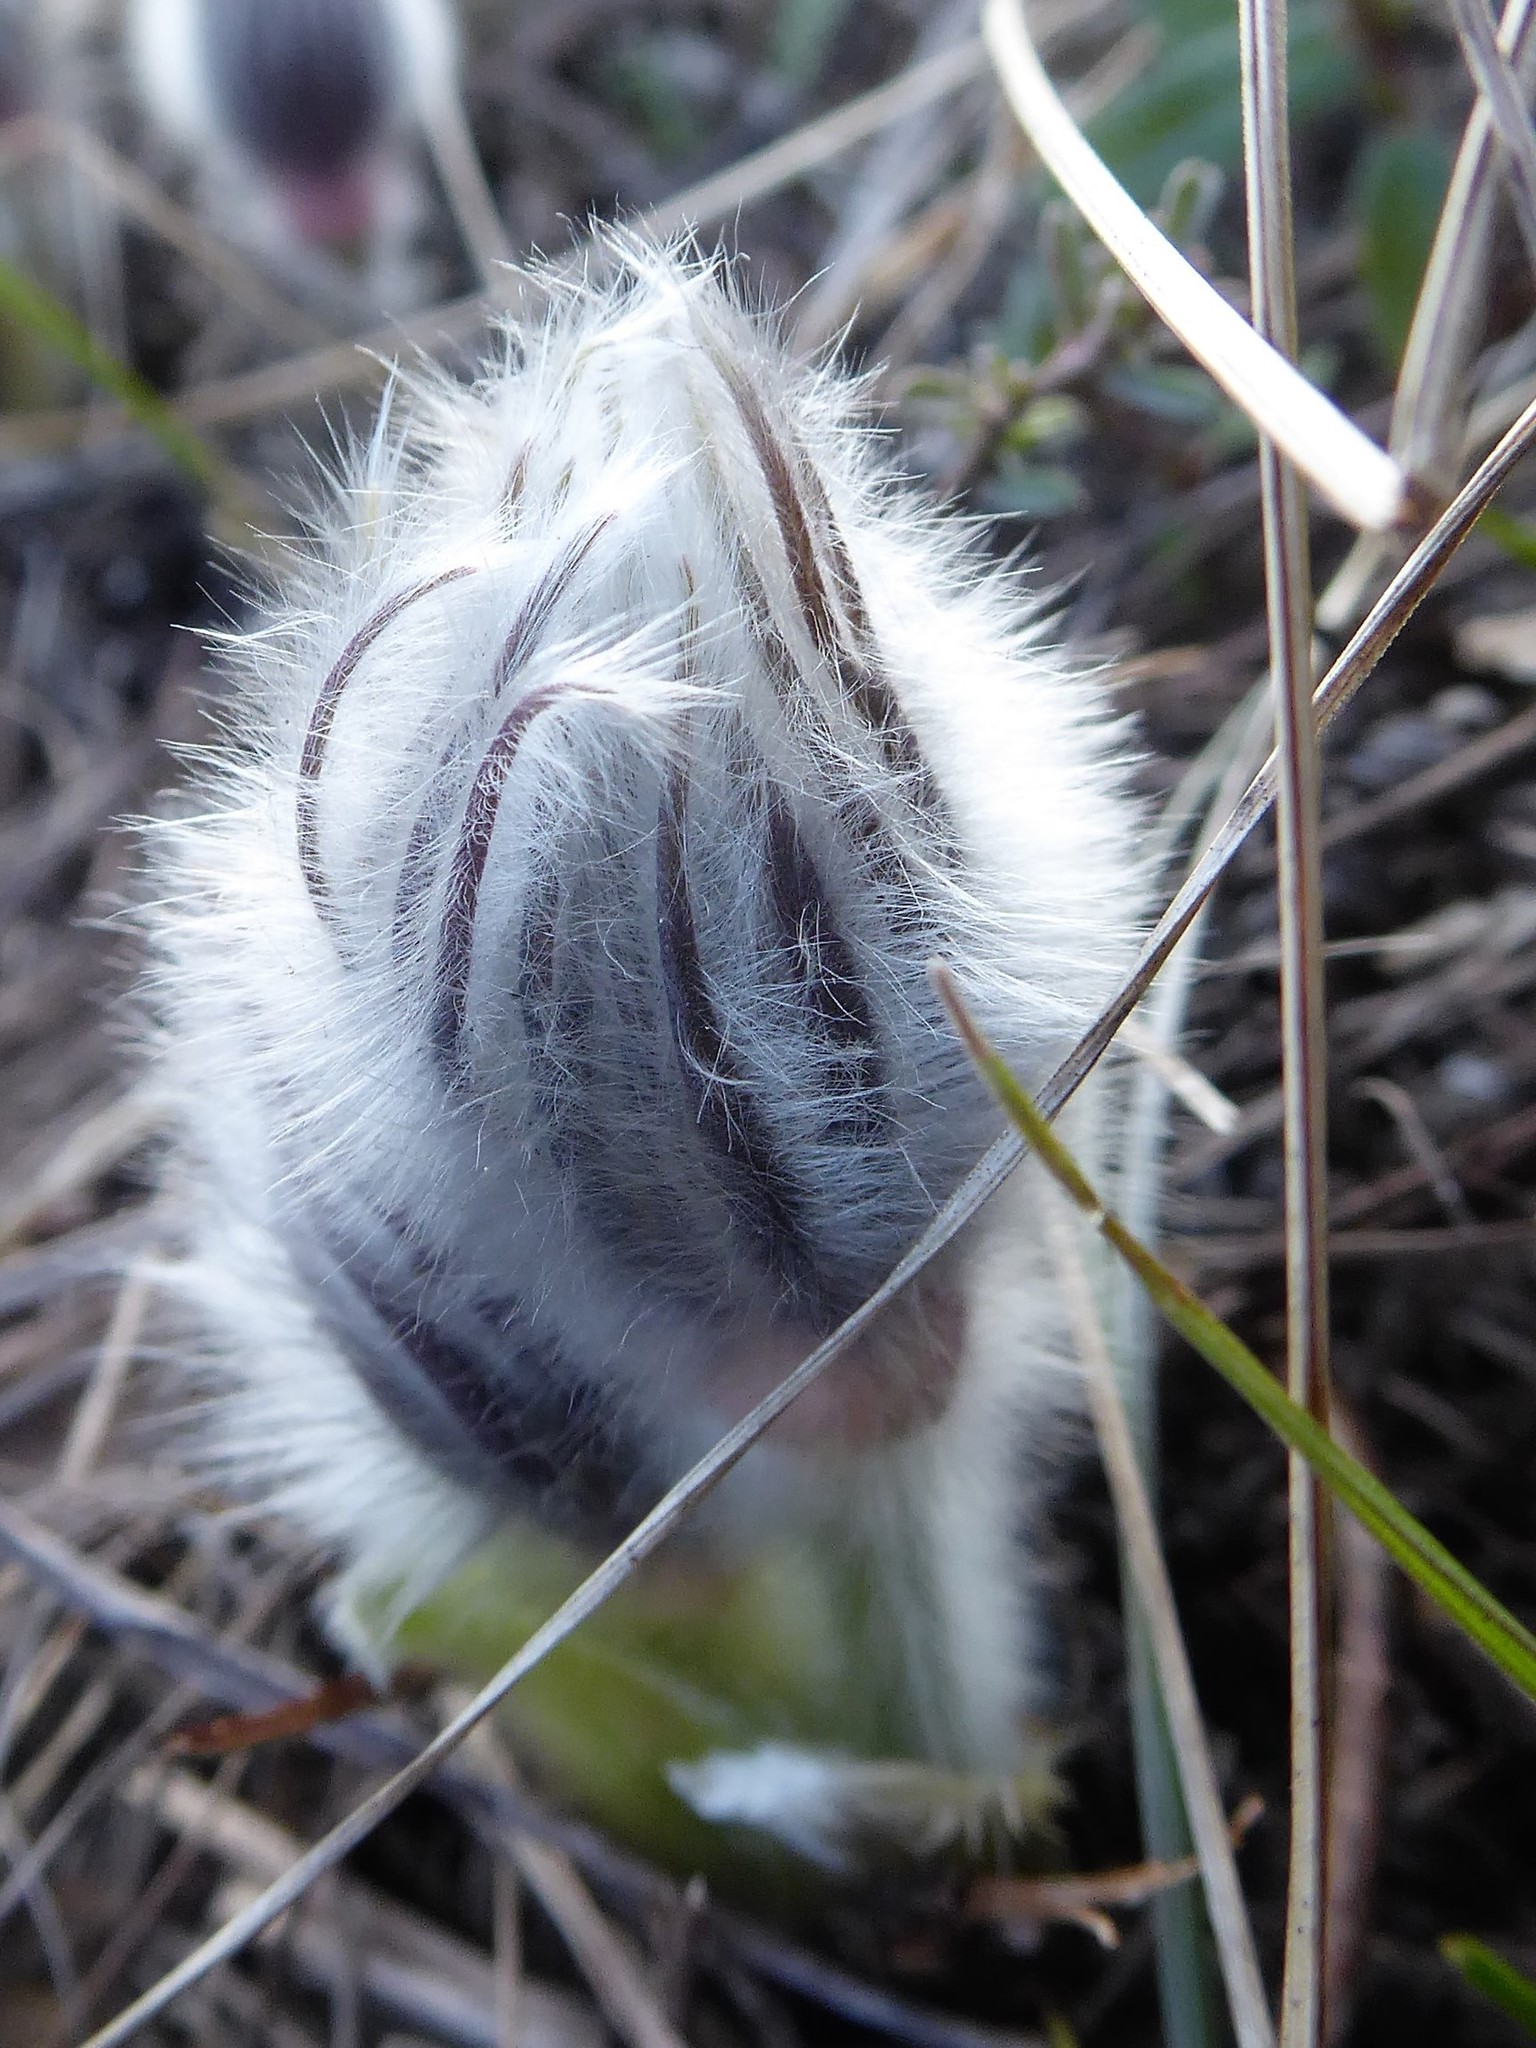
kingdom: Plantae
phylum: Tracheophyta
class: Magnoliopsida
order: Ranunculales
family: Ranunculaceae
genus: Pulsatilla
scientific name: Pulsatilla grandis
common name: Greater pasque flower
